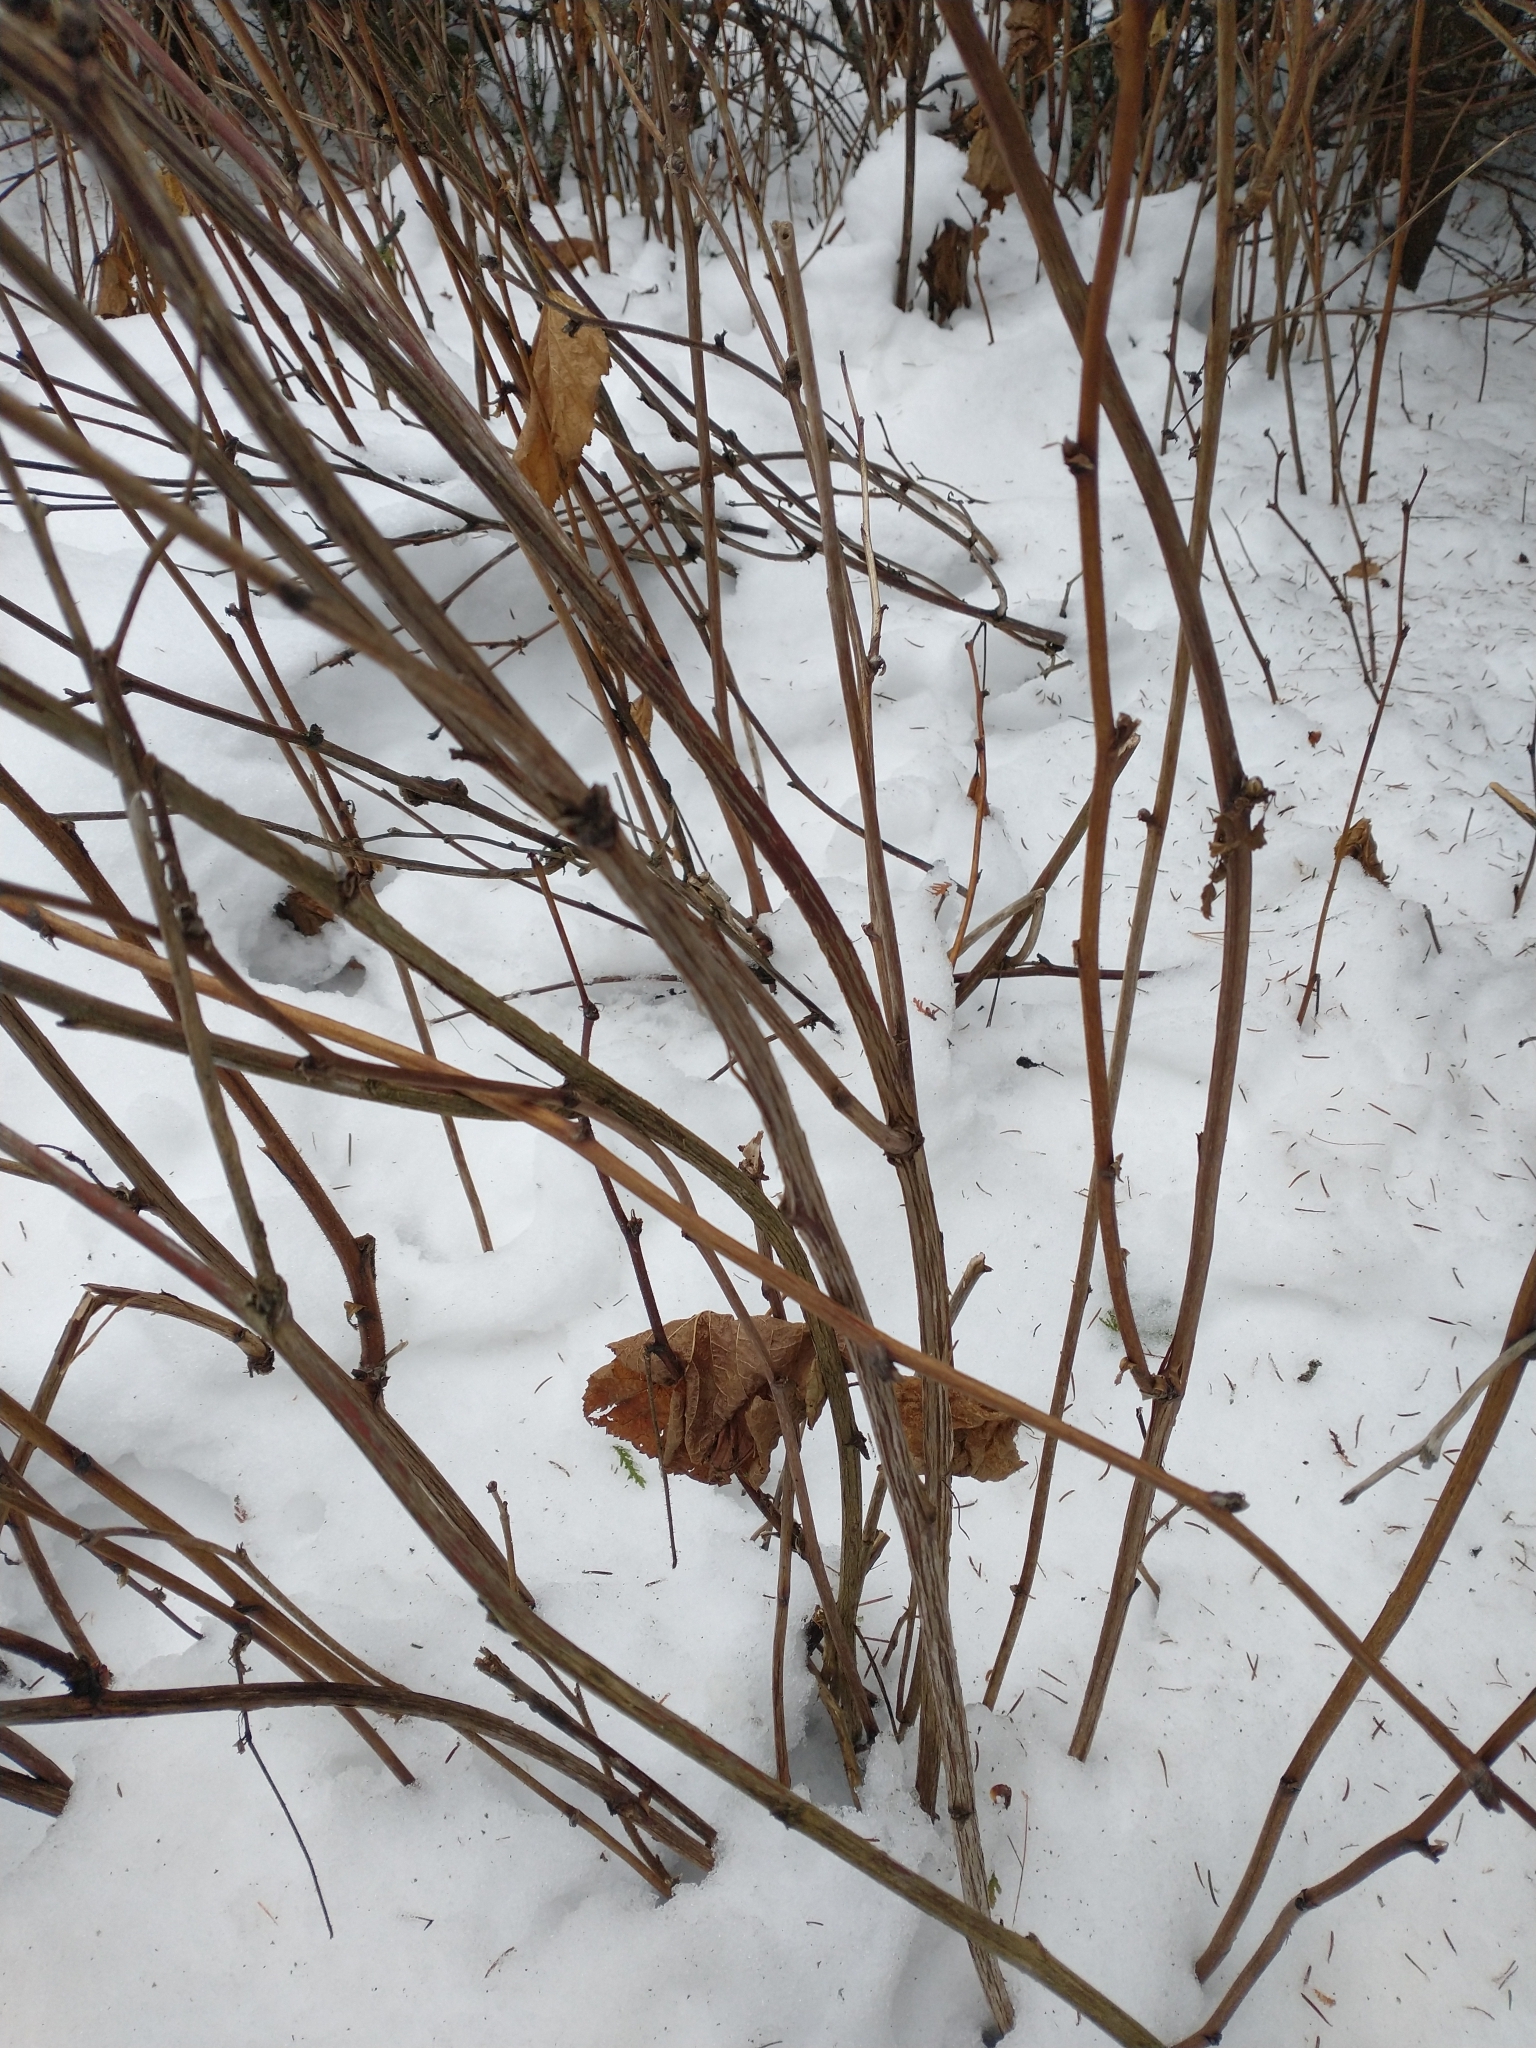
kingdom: Plantae
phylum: Tracheophyta
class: Magnoliopsida
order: Rosales
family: Rosaceae
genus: Rubus
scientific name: Rubus parviflorus
